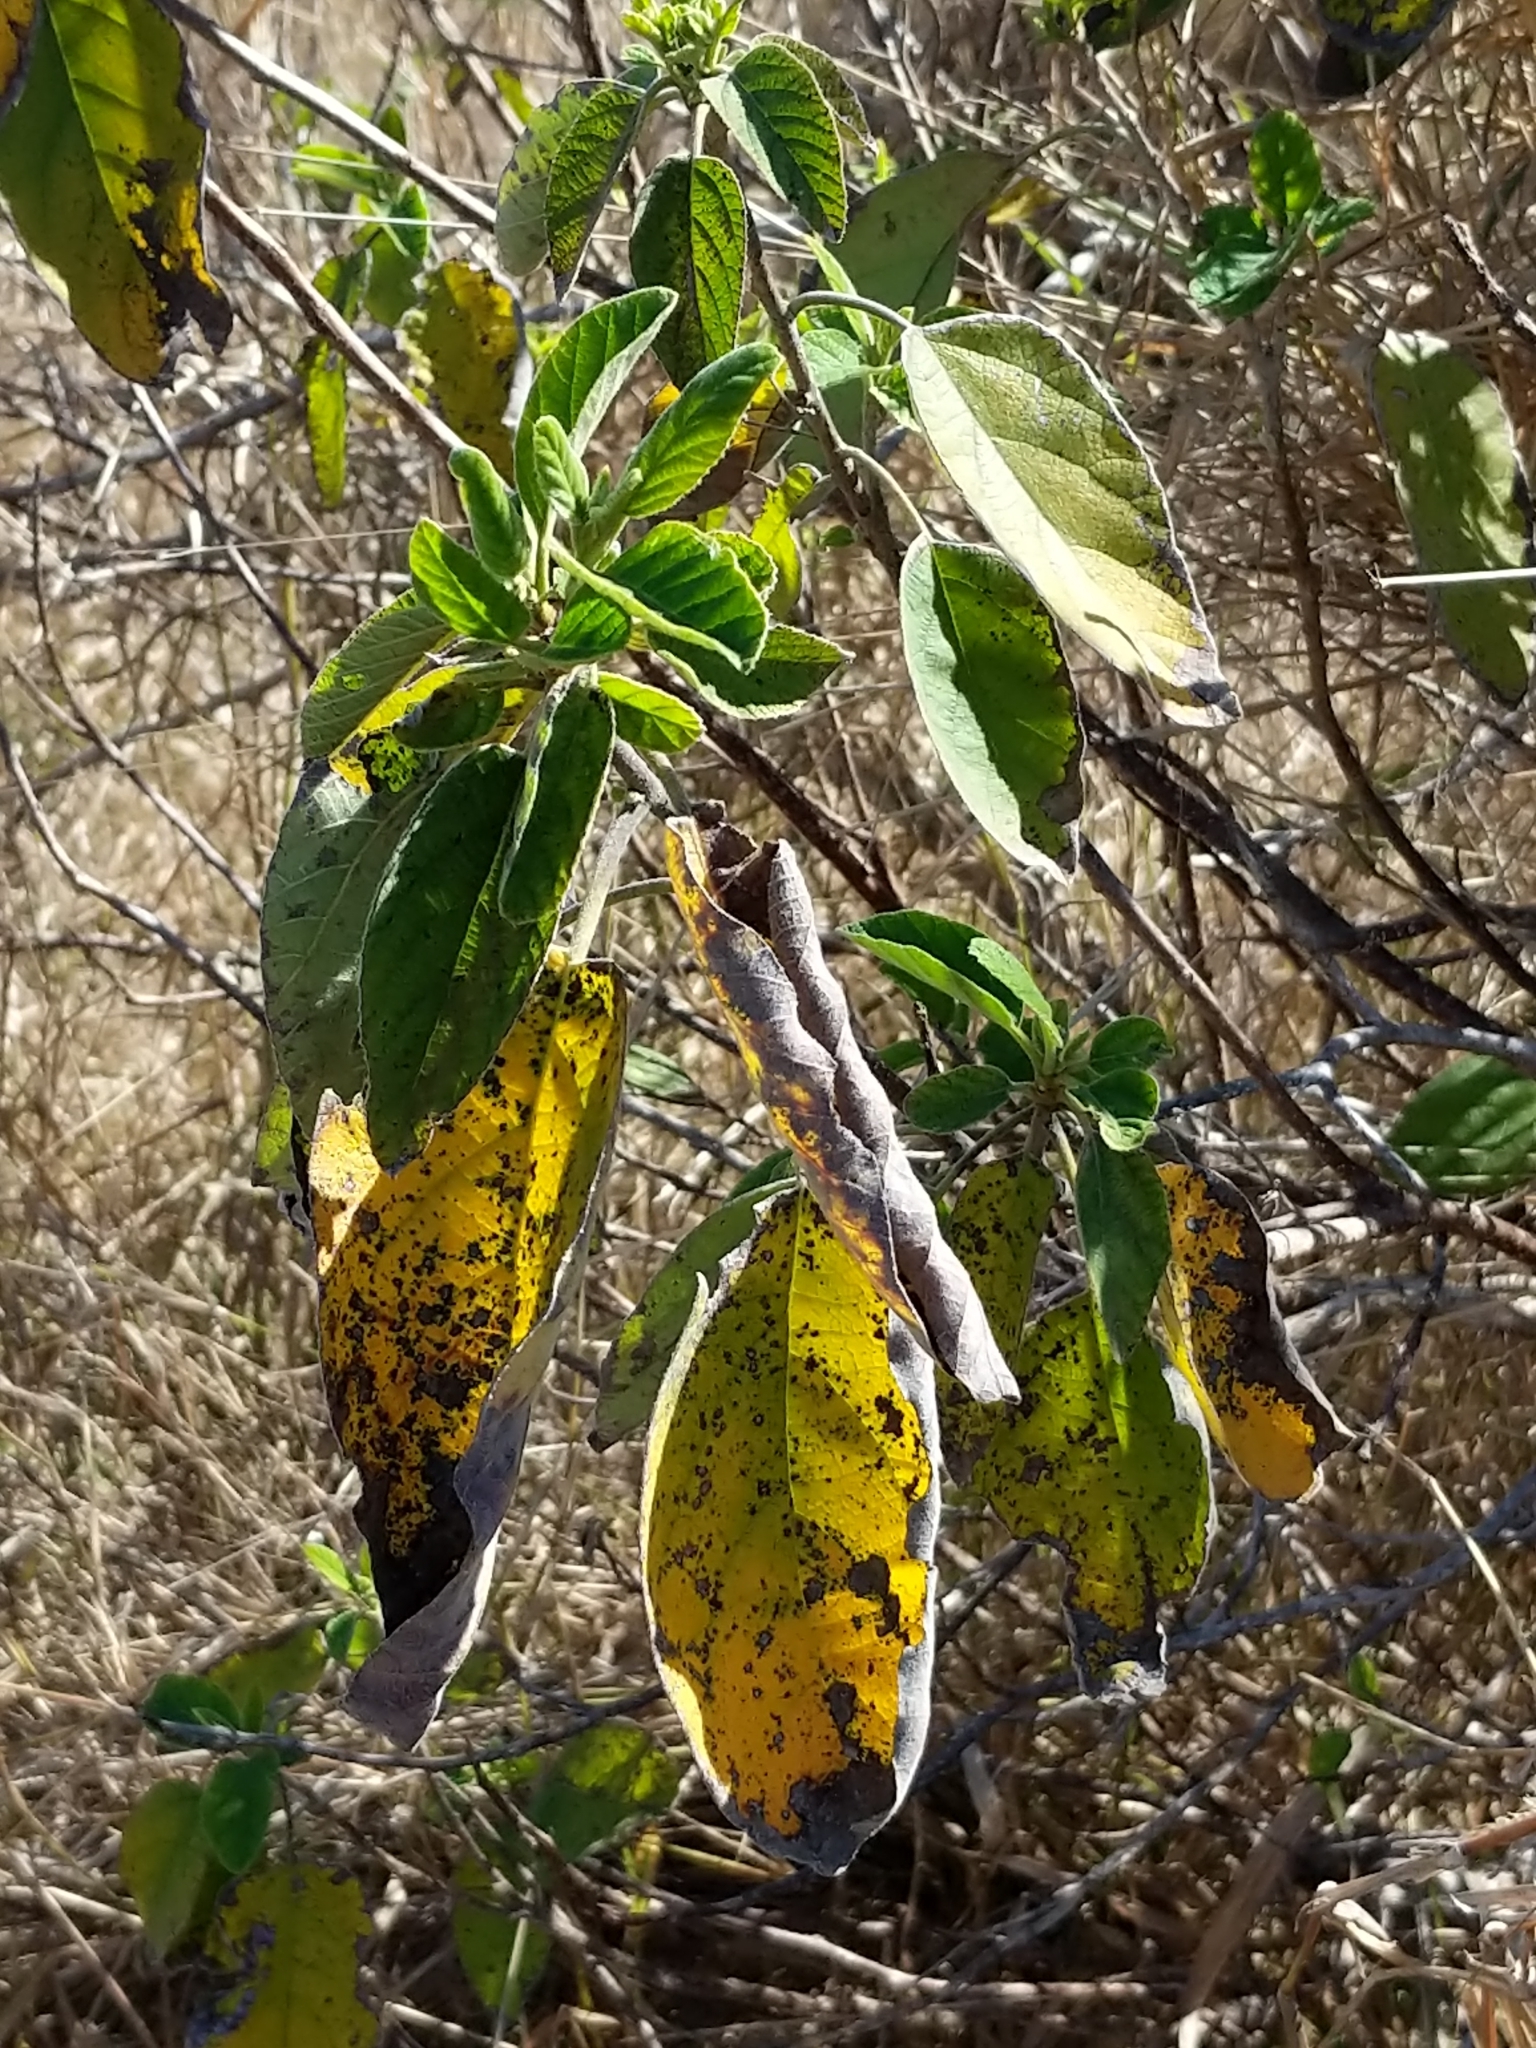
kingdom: Plantae
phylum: Tracheophyta
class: Magnoliopsida
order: Boraginales
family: Cordiaceae
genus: Cordia
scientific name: Cordia boissieri
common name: Mexican-olive
